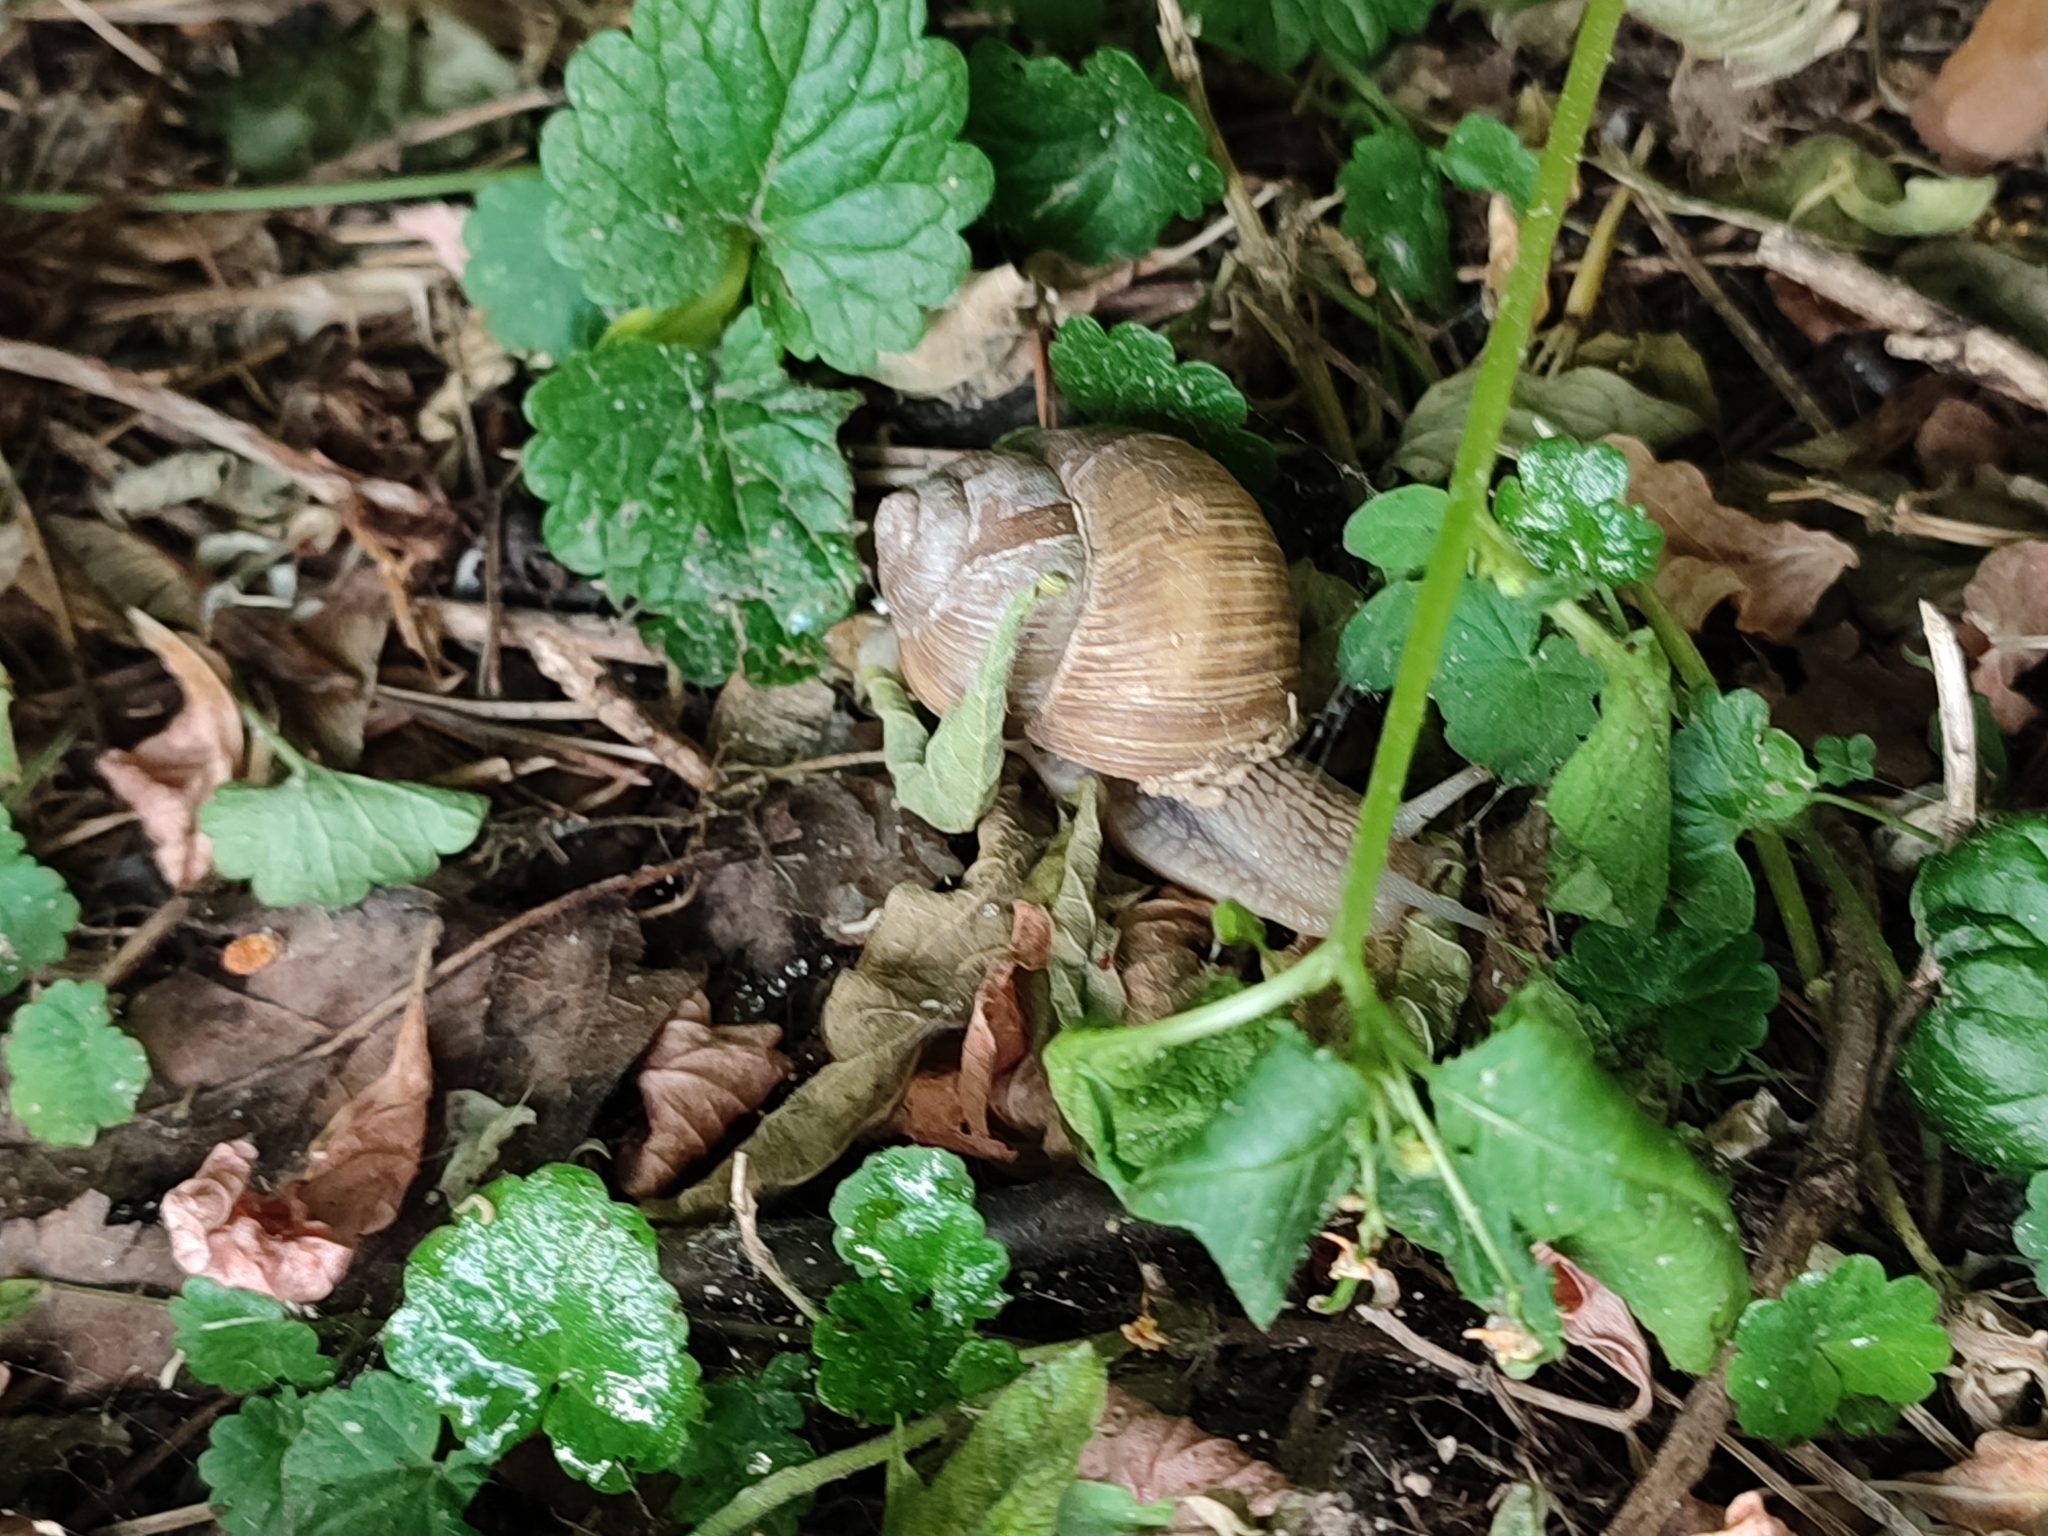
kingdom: Animalia
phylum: Mollusca
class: Gastropoda
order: Stylommatophora
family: Helicidae
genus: Helix
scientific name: Helix pomatia
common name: Roman snail
